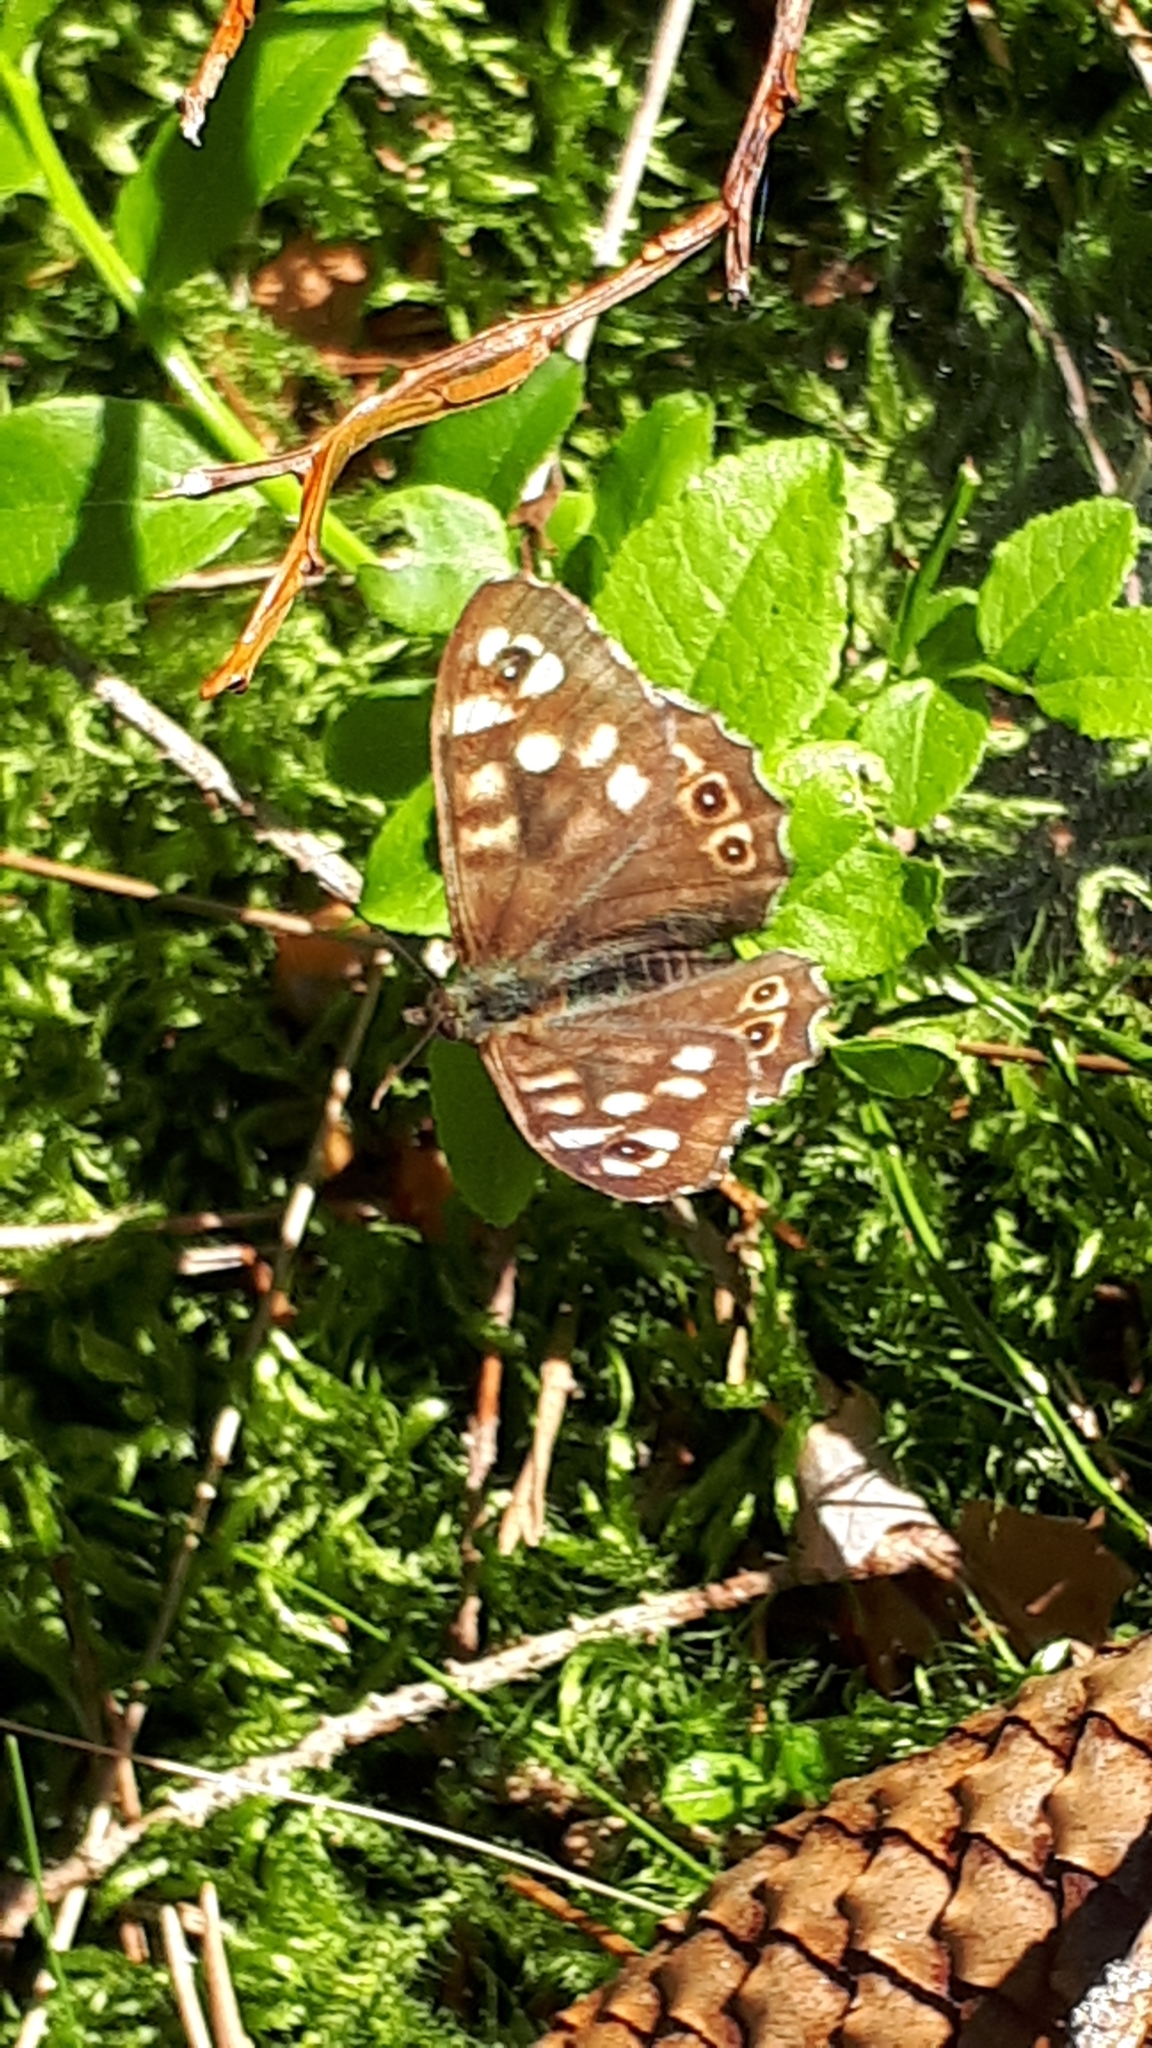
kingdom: Animalia
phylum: Arthropoda
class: Insecta
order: Lepidoptera
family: Nymphalidae
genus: Pararge
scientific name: Pararge aegeria
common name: Speckled wood
